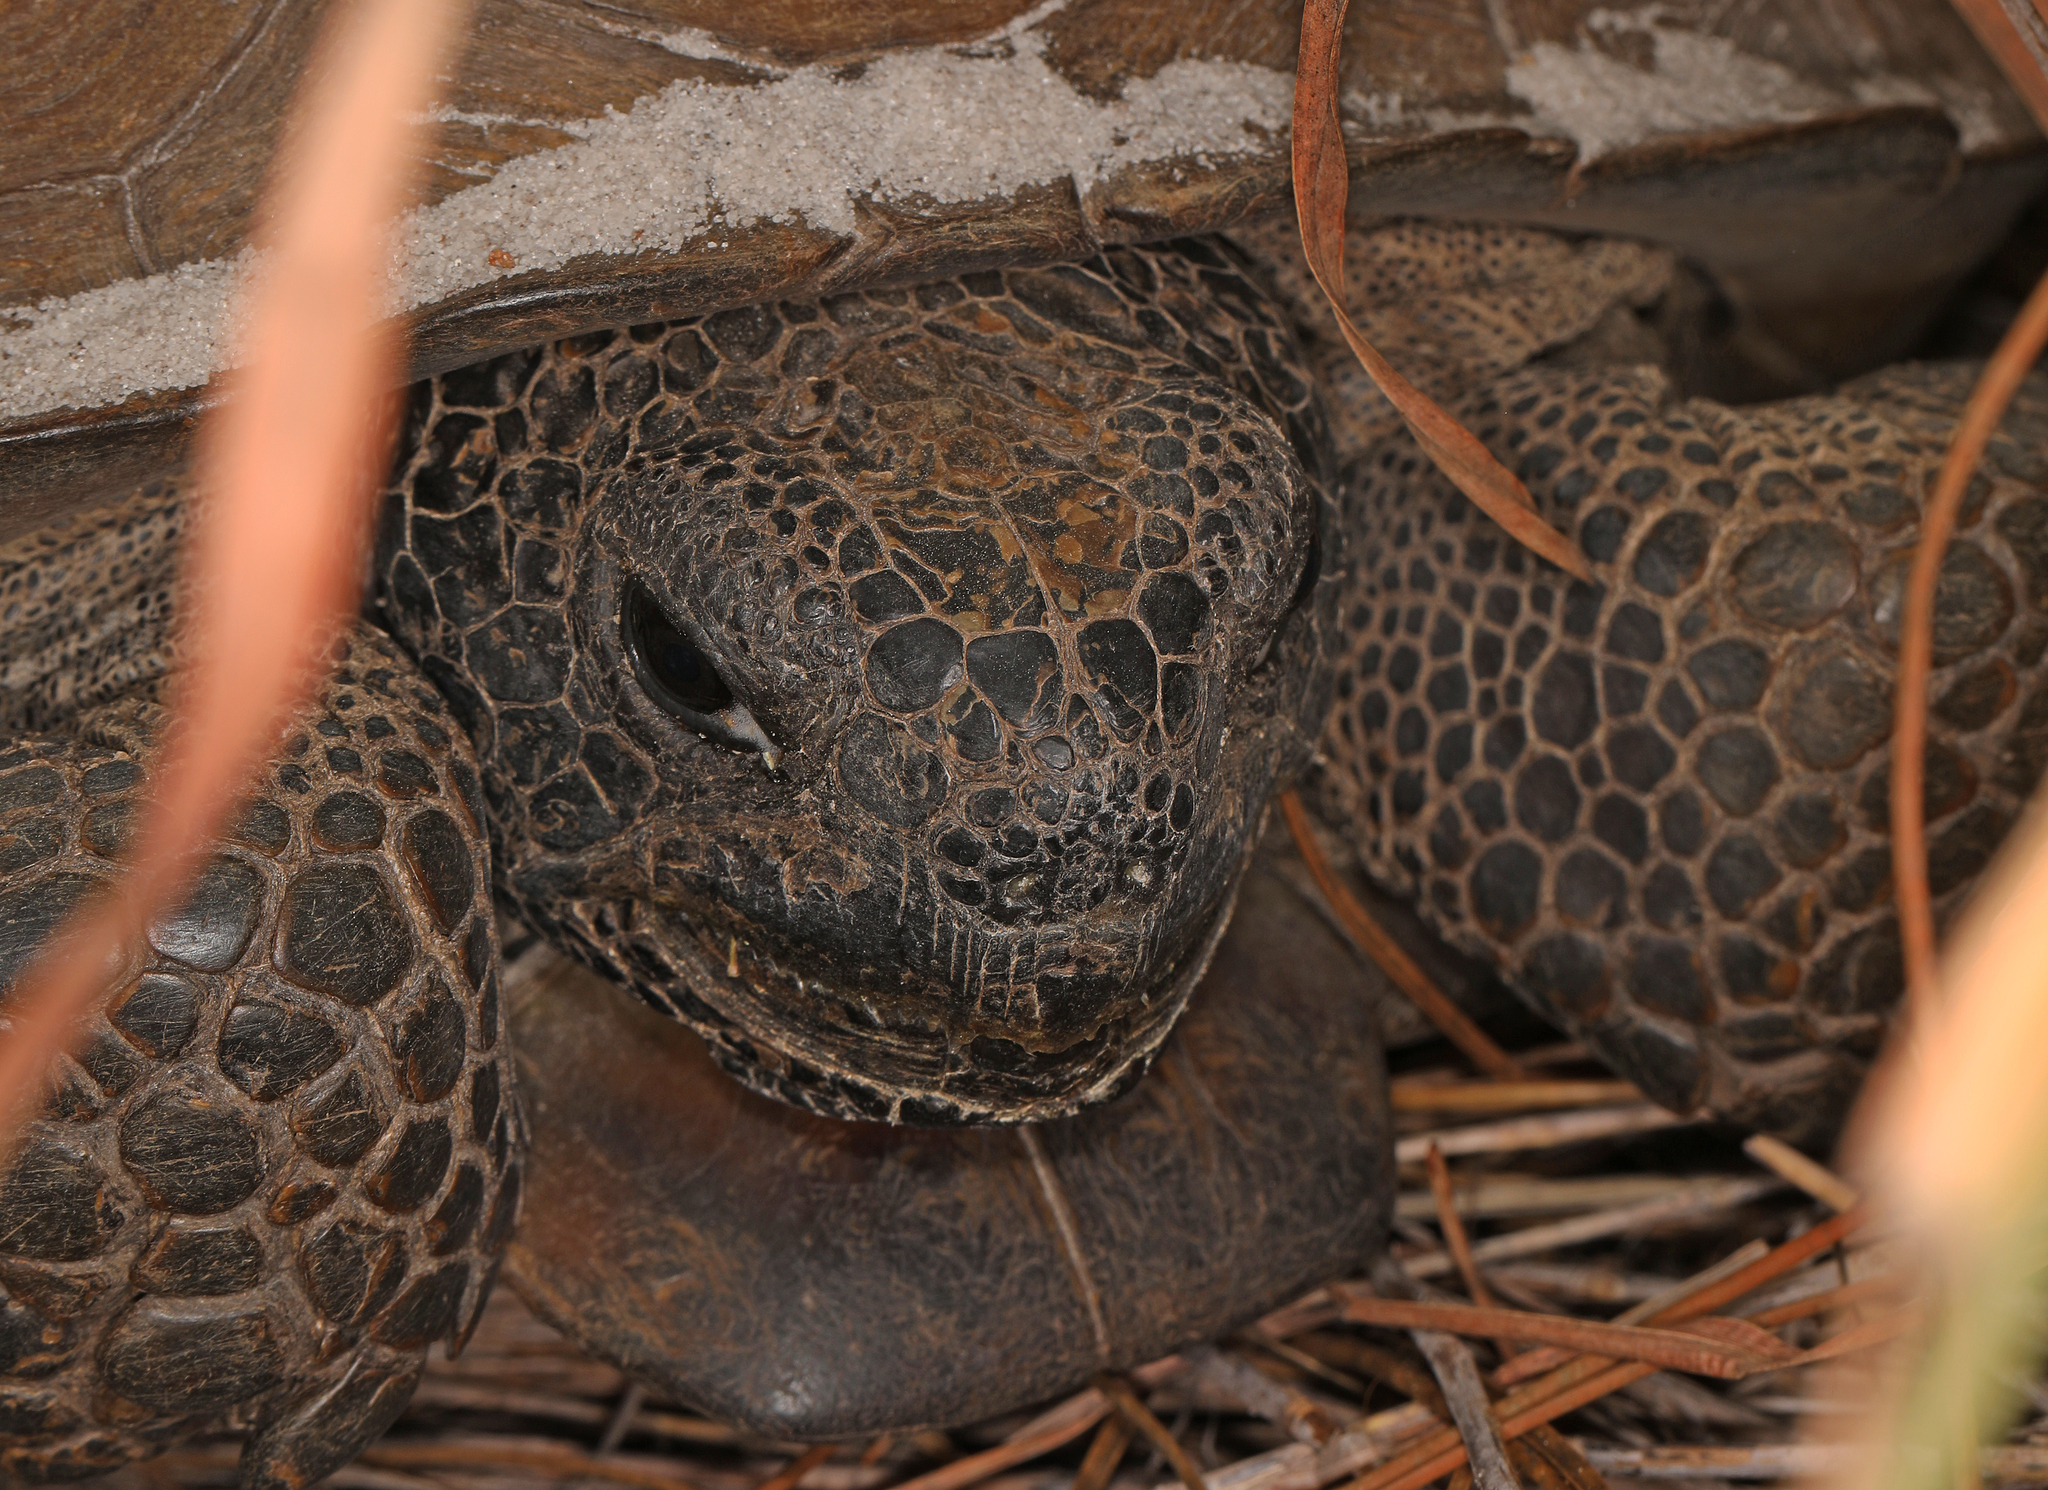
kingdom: Animalia
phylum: Chordata
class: Testudines
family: Testudinidae
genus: Gopherus
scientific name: Gopherus polyphemus
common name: Florida gopher tortoise
